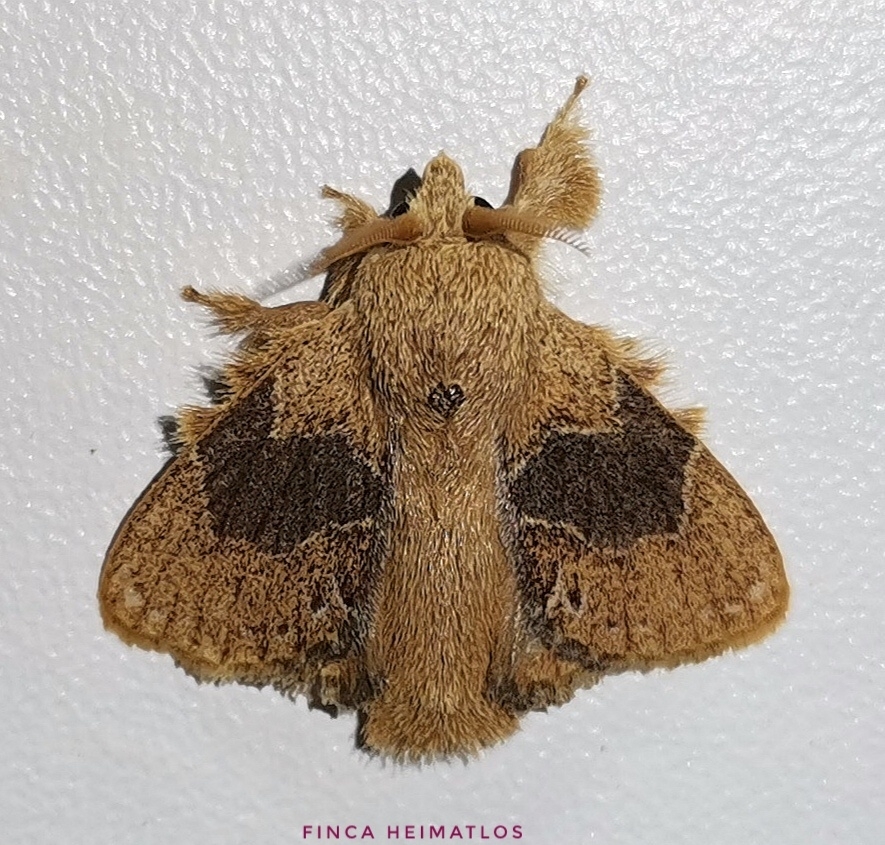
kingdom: Animalia
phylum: Arthropoda
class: Insecta
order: Lepidoptera
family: Lasiocampidae
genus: Euglyphis
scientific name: Euglyphis vitripuncta
